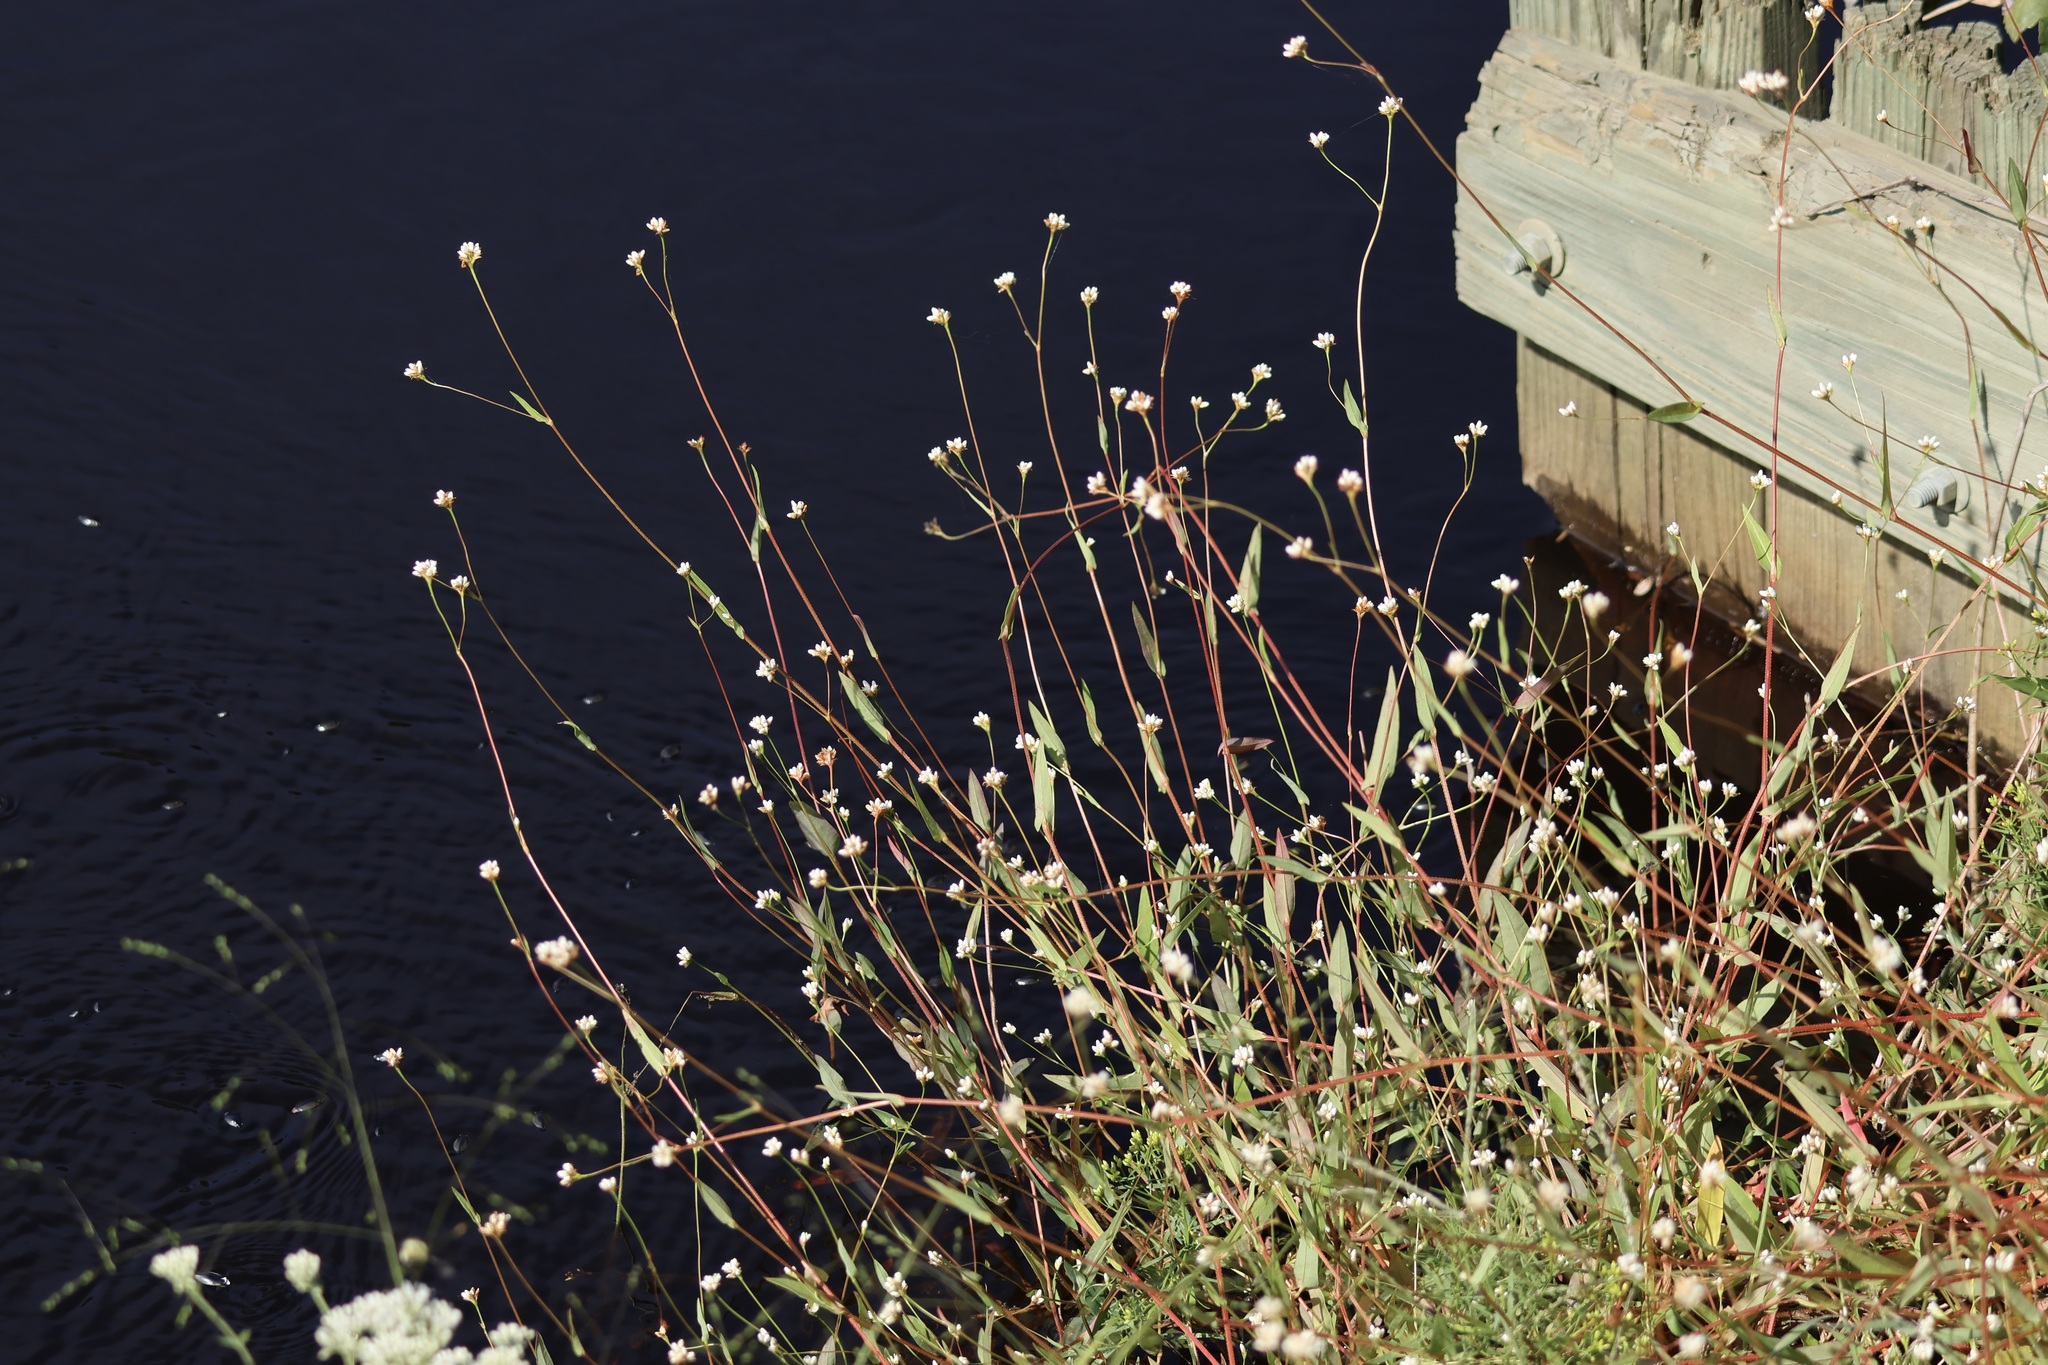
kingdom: Plantae
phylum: Tracheophyta
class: Magnoliopsida
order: Caryophyllales
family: Polygonaceae
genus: Persicaria
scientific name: Persicaria sagittata
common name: American tearthumb
